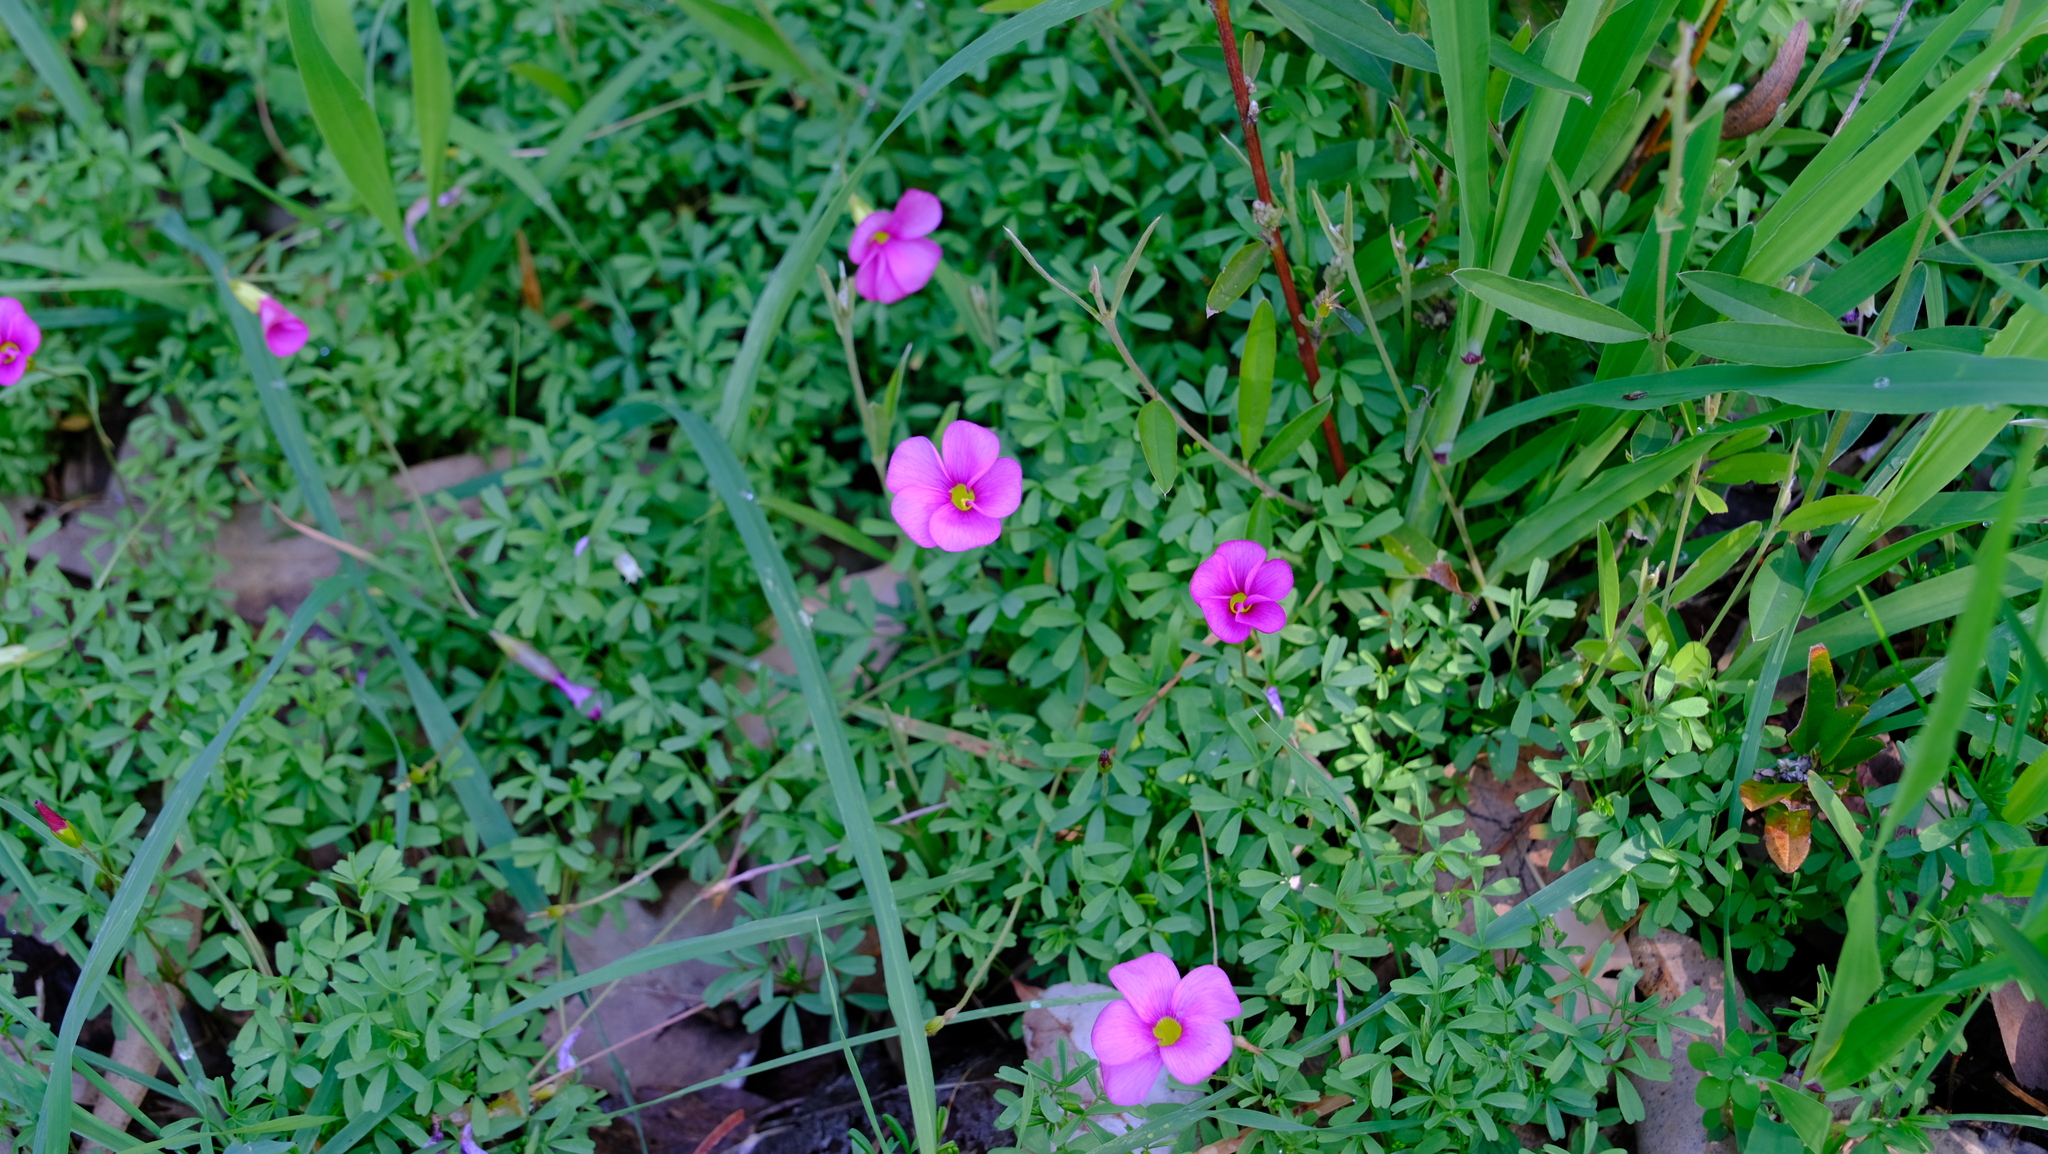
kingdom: Plantae
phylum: Tracheophyta
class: Magnoliopsida
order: Oxalidales
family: Oxalidaceae
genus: Oxalis
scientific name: Oxalis glabra
